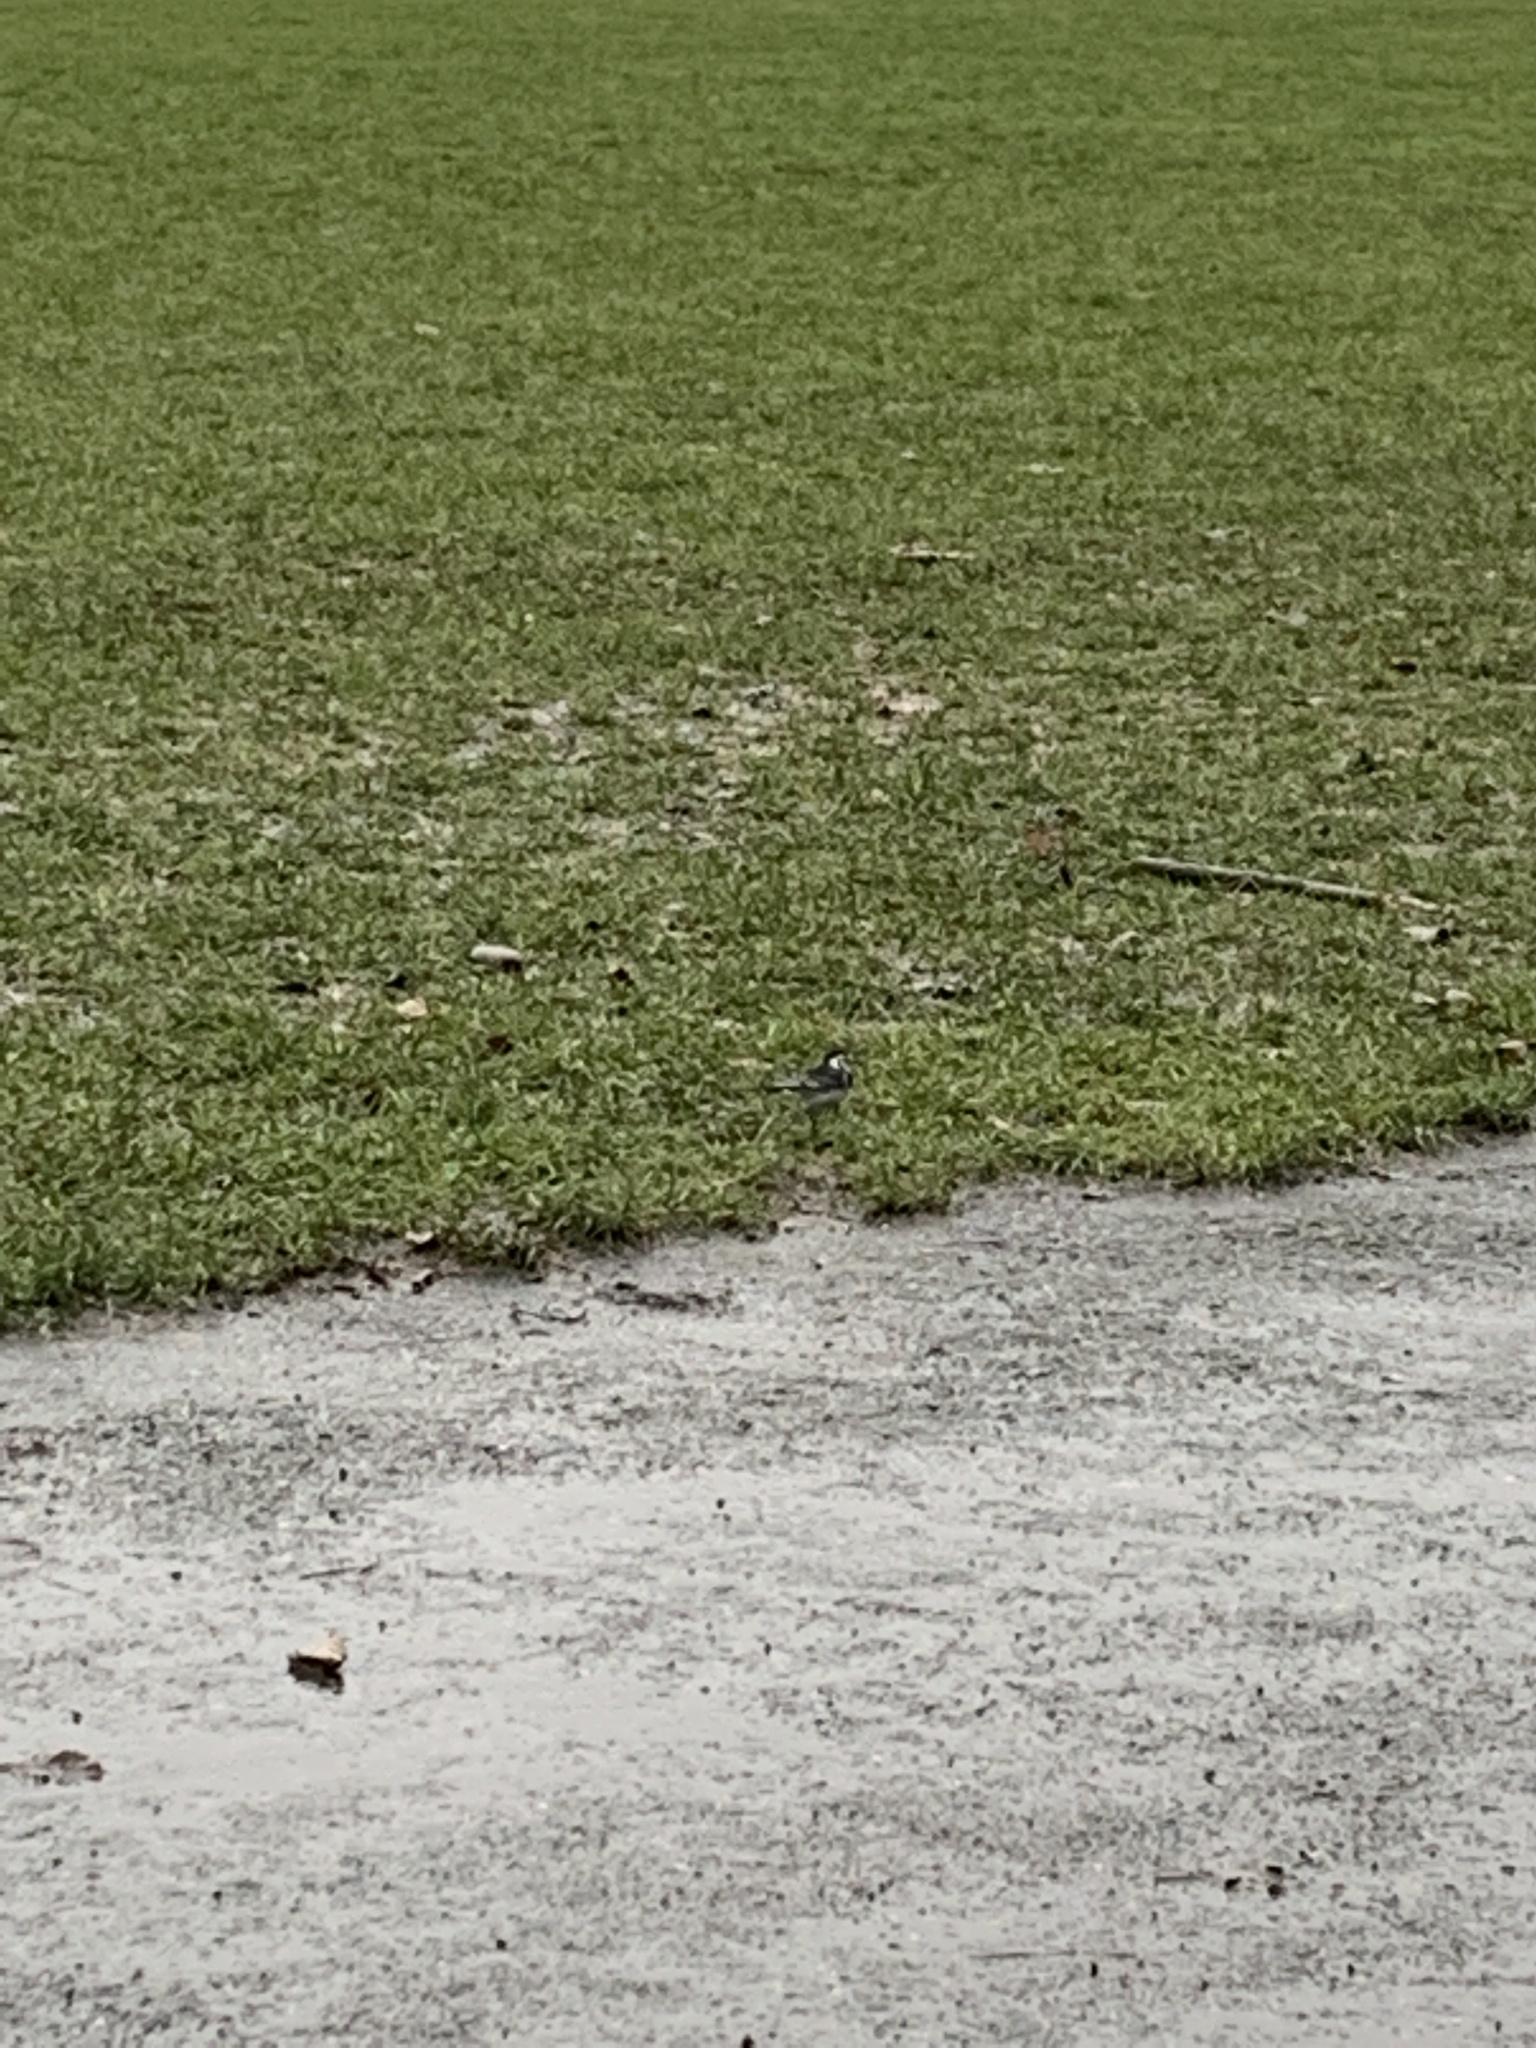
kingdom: Animalia
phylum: Chordata
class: Aves
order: Passeriformes
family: Motacillidae
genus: Motacilla
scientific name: Motacilla alba
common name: White wagtail
